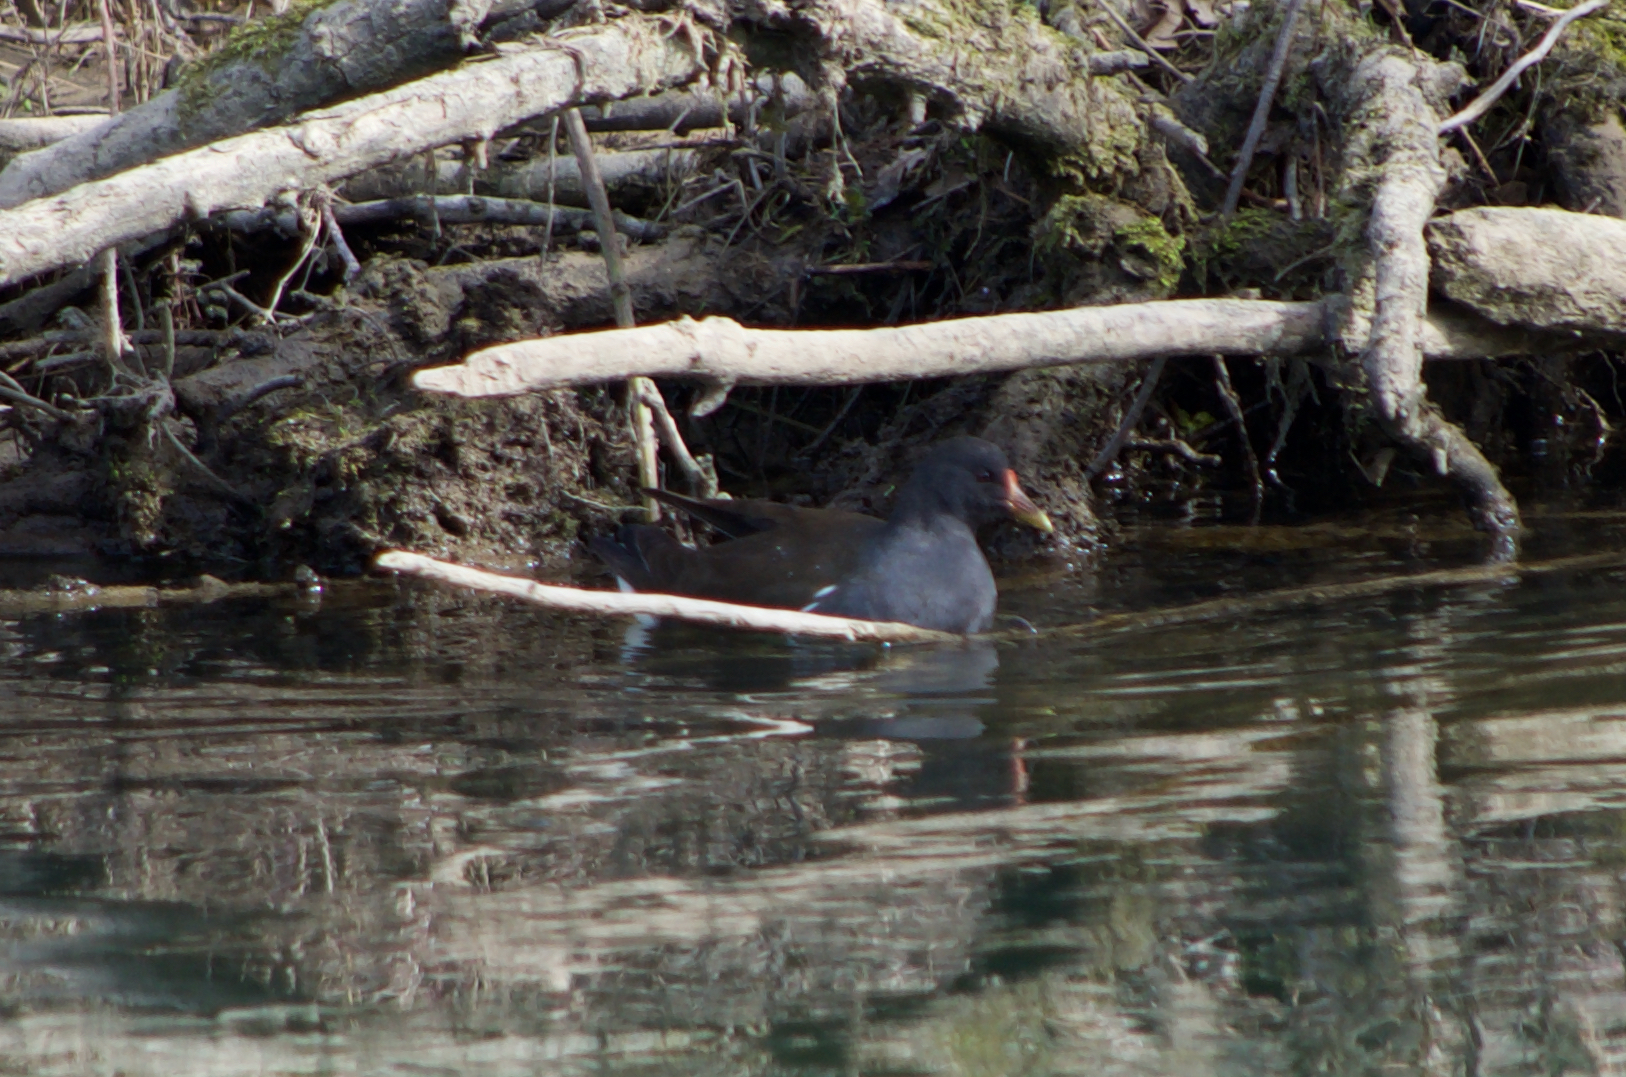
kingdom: Animalia
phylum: Chordata
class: Aves
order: Gruiformes
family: Rallidae
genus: Gallinula
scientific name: Gallinula chloropus
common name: Common moorhen
